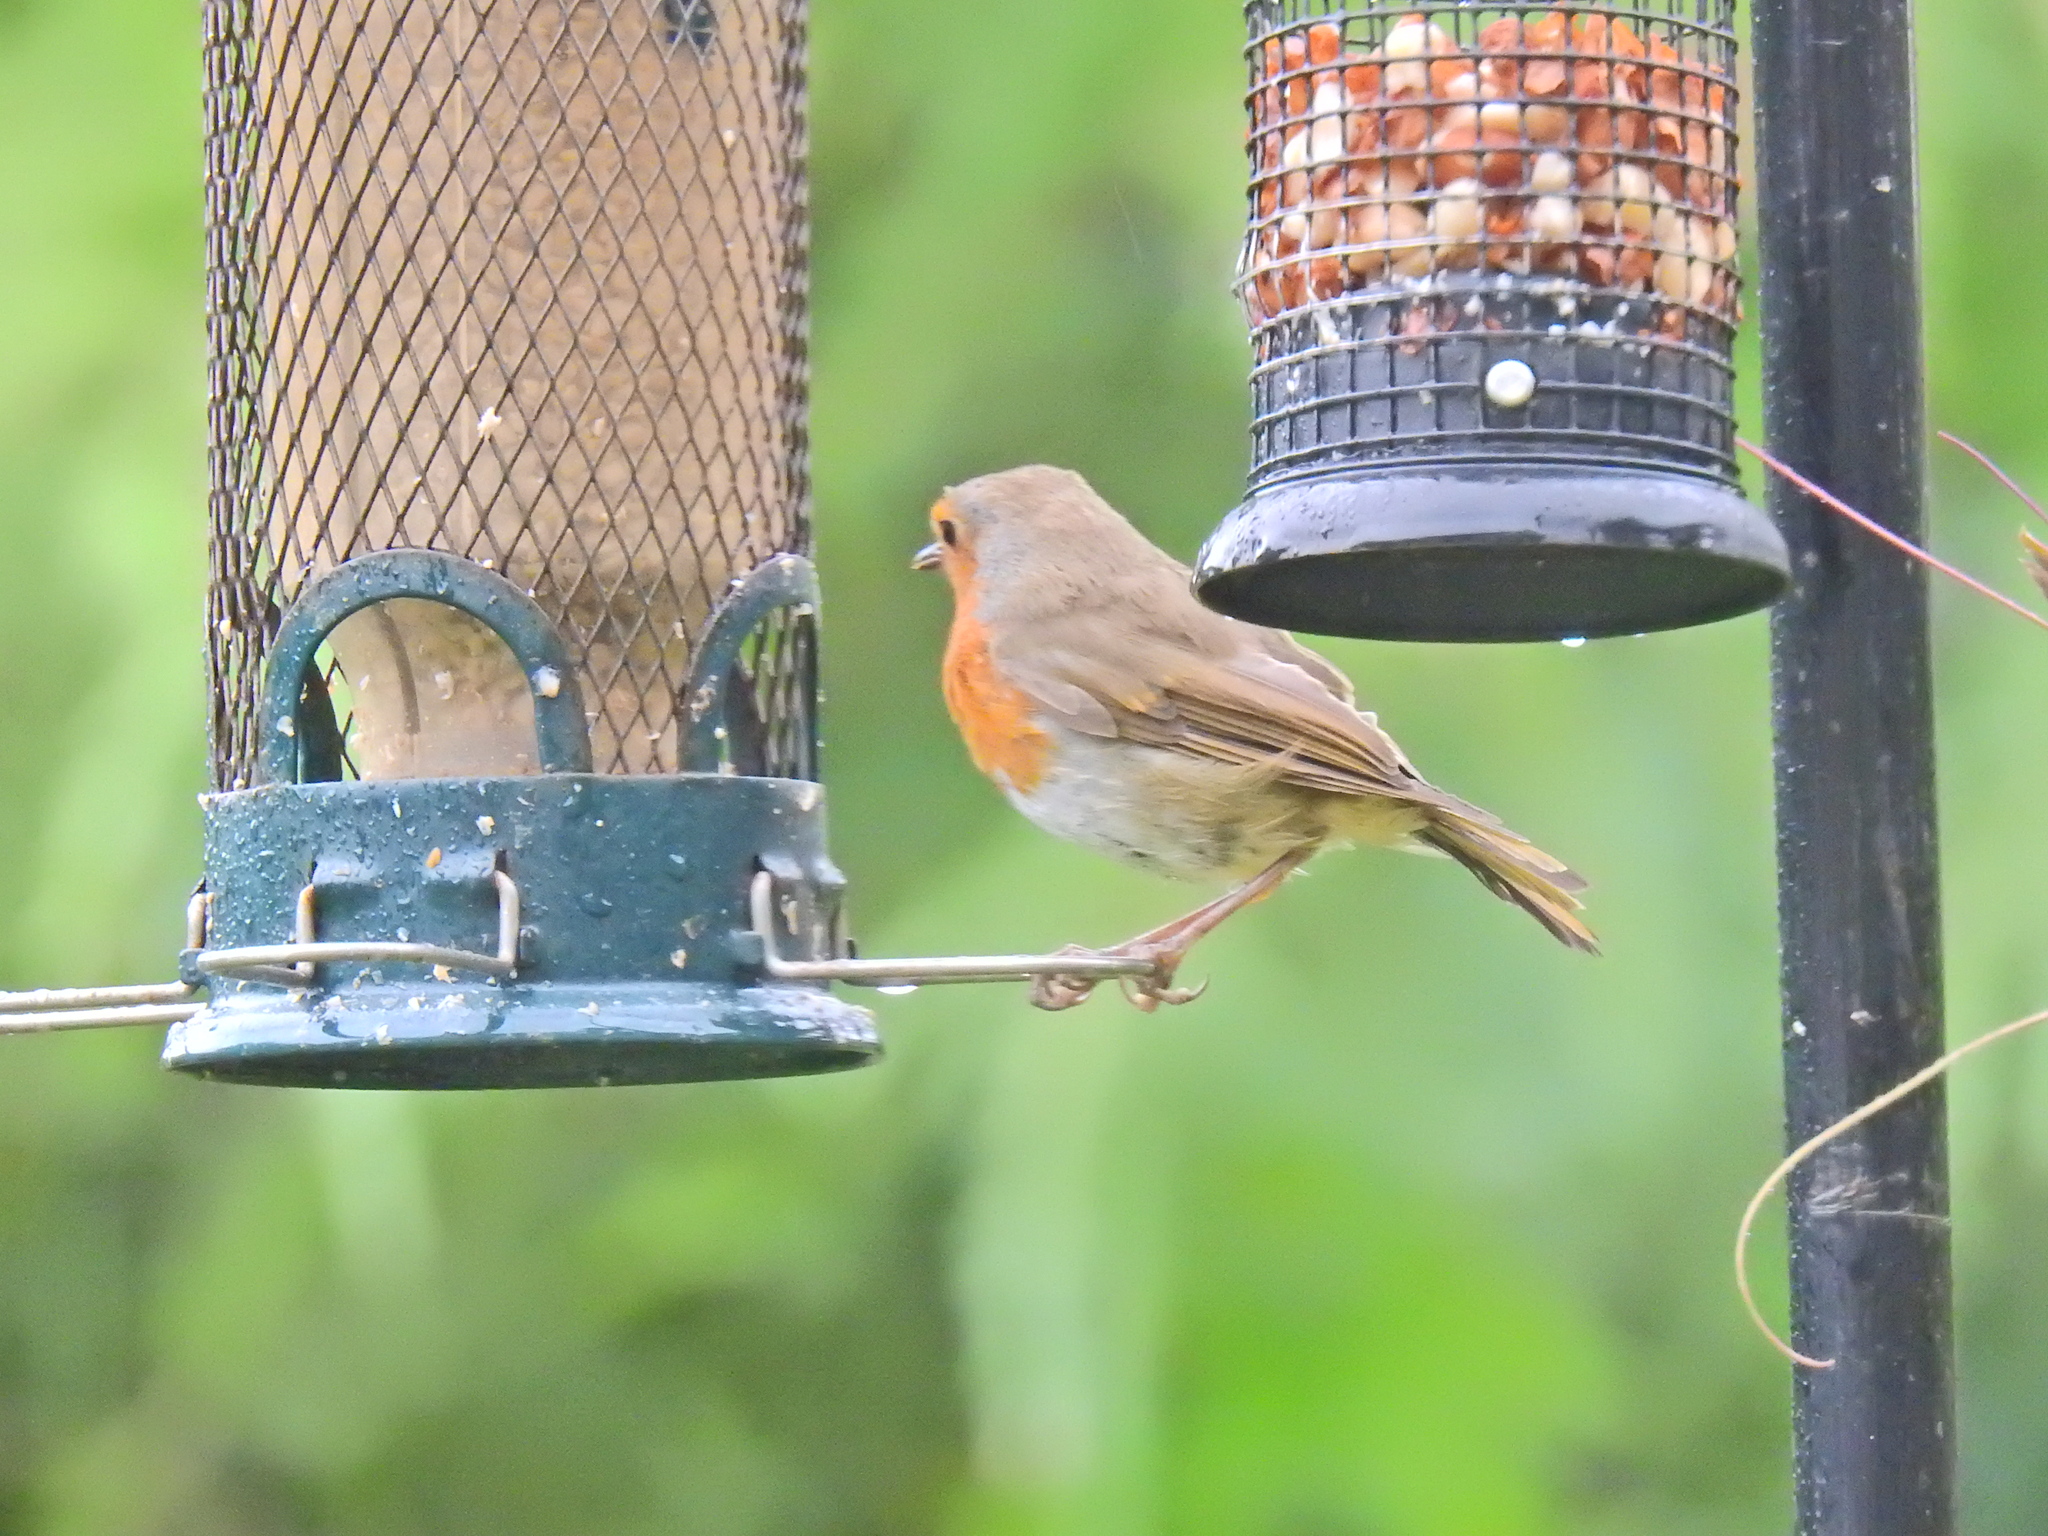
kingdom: Animalia
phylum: Chordata
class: Aves
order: Passeriformes
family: Muscicapidae
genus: Erithacus
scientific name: Erithacus rubecula
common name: European robin
